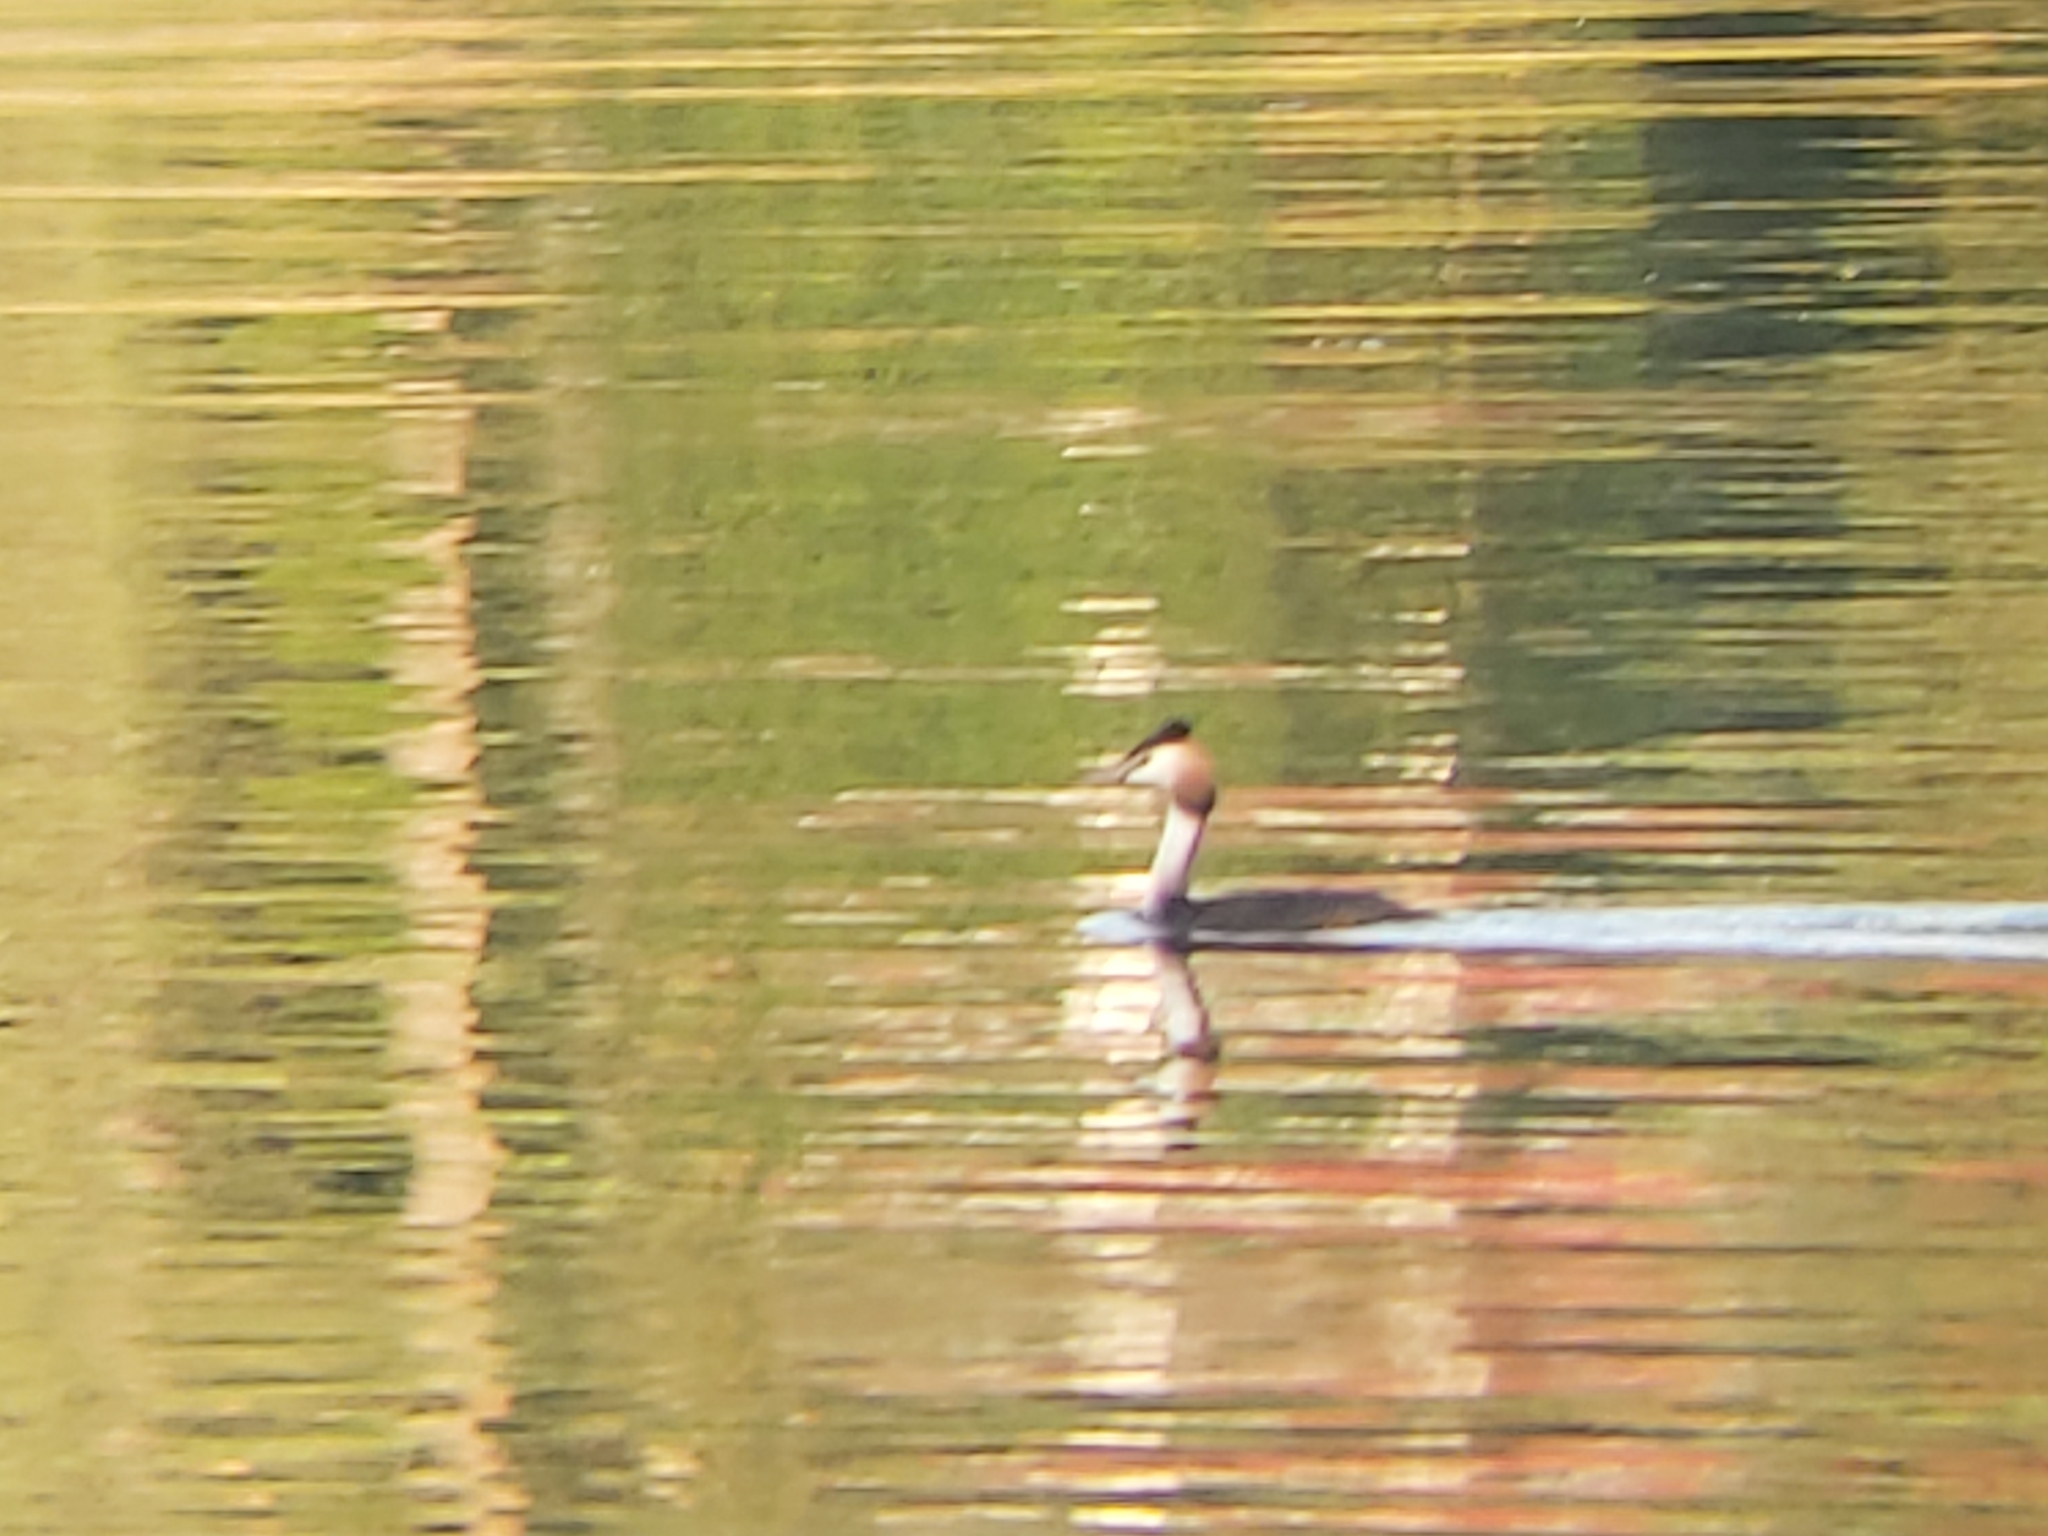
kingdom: Animalia
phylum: Chordata
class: Aves
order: Podicipediformes
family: Podicipedidae
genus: Podiceps
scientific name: Podiceps cristatus
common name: Great crested grebe
